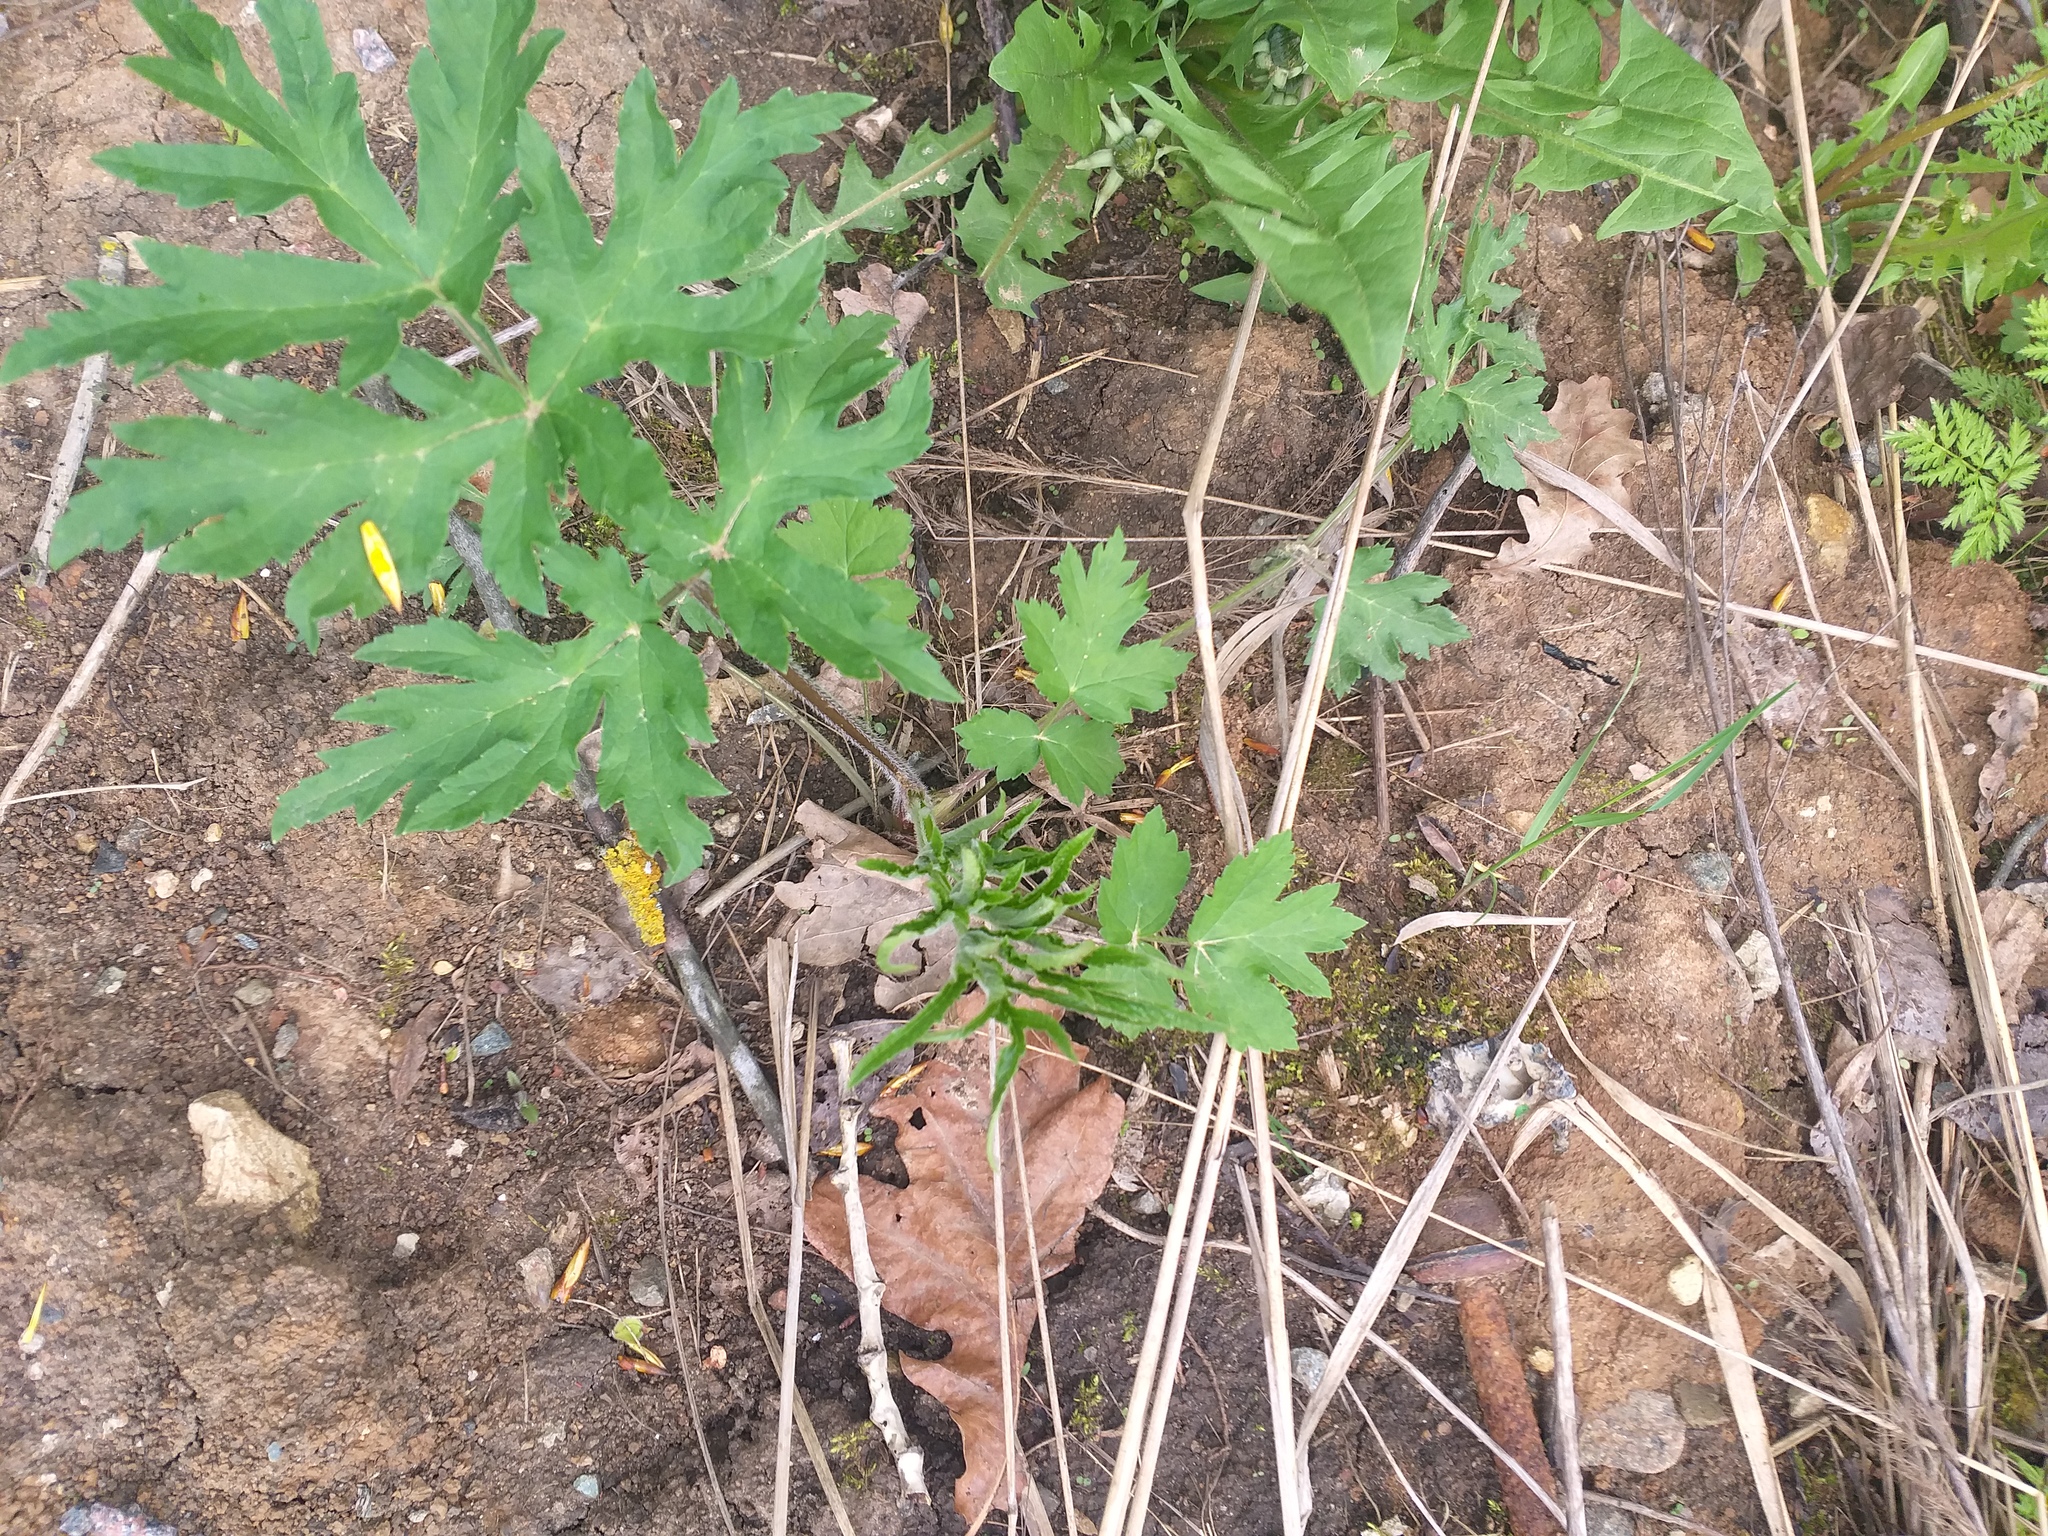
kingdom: Plantae
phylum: Tracheophyta
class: Magnoliopsida
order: Apiales
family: Apiaceae
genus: Heracleum
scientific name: Heracleum sphondylium
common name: Hogweed
